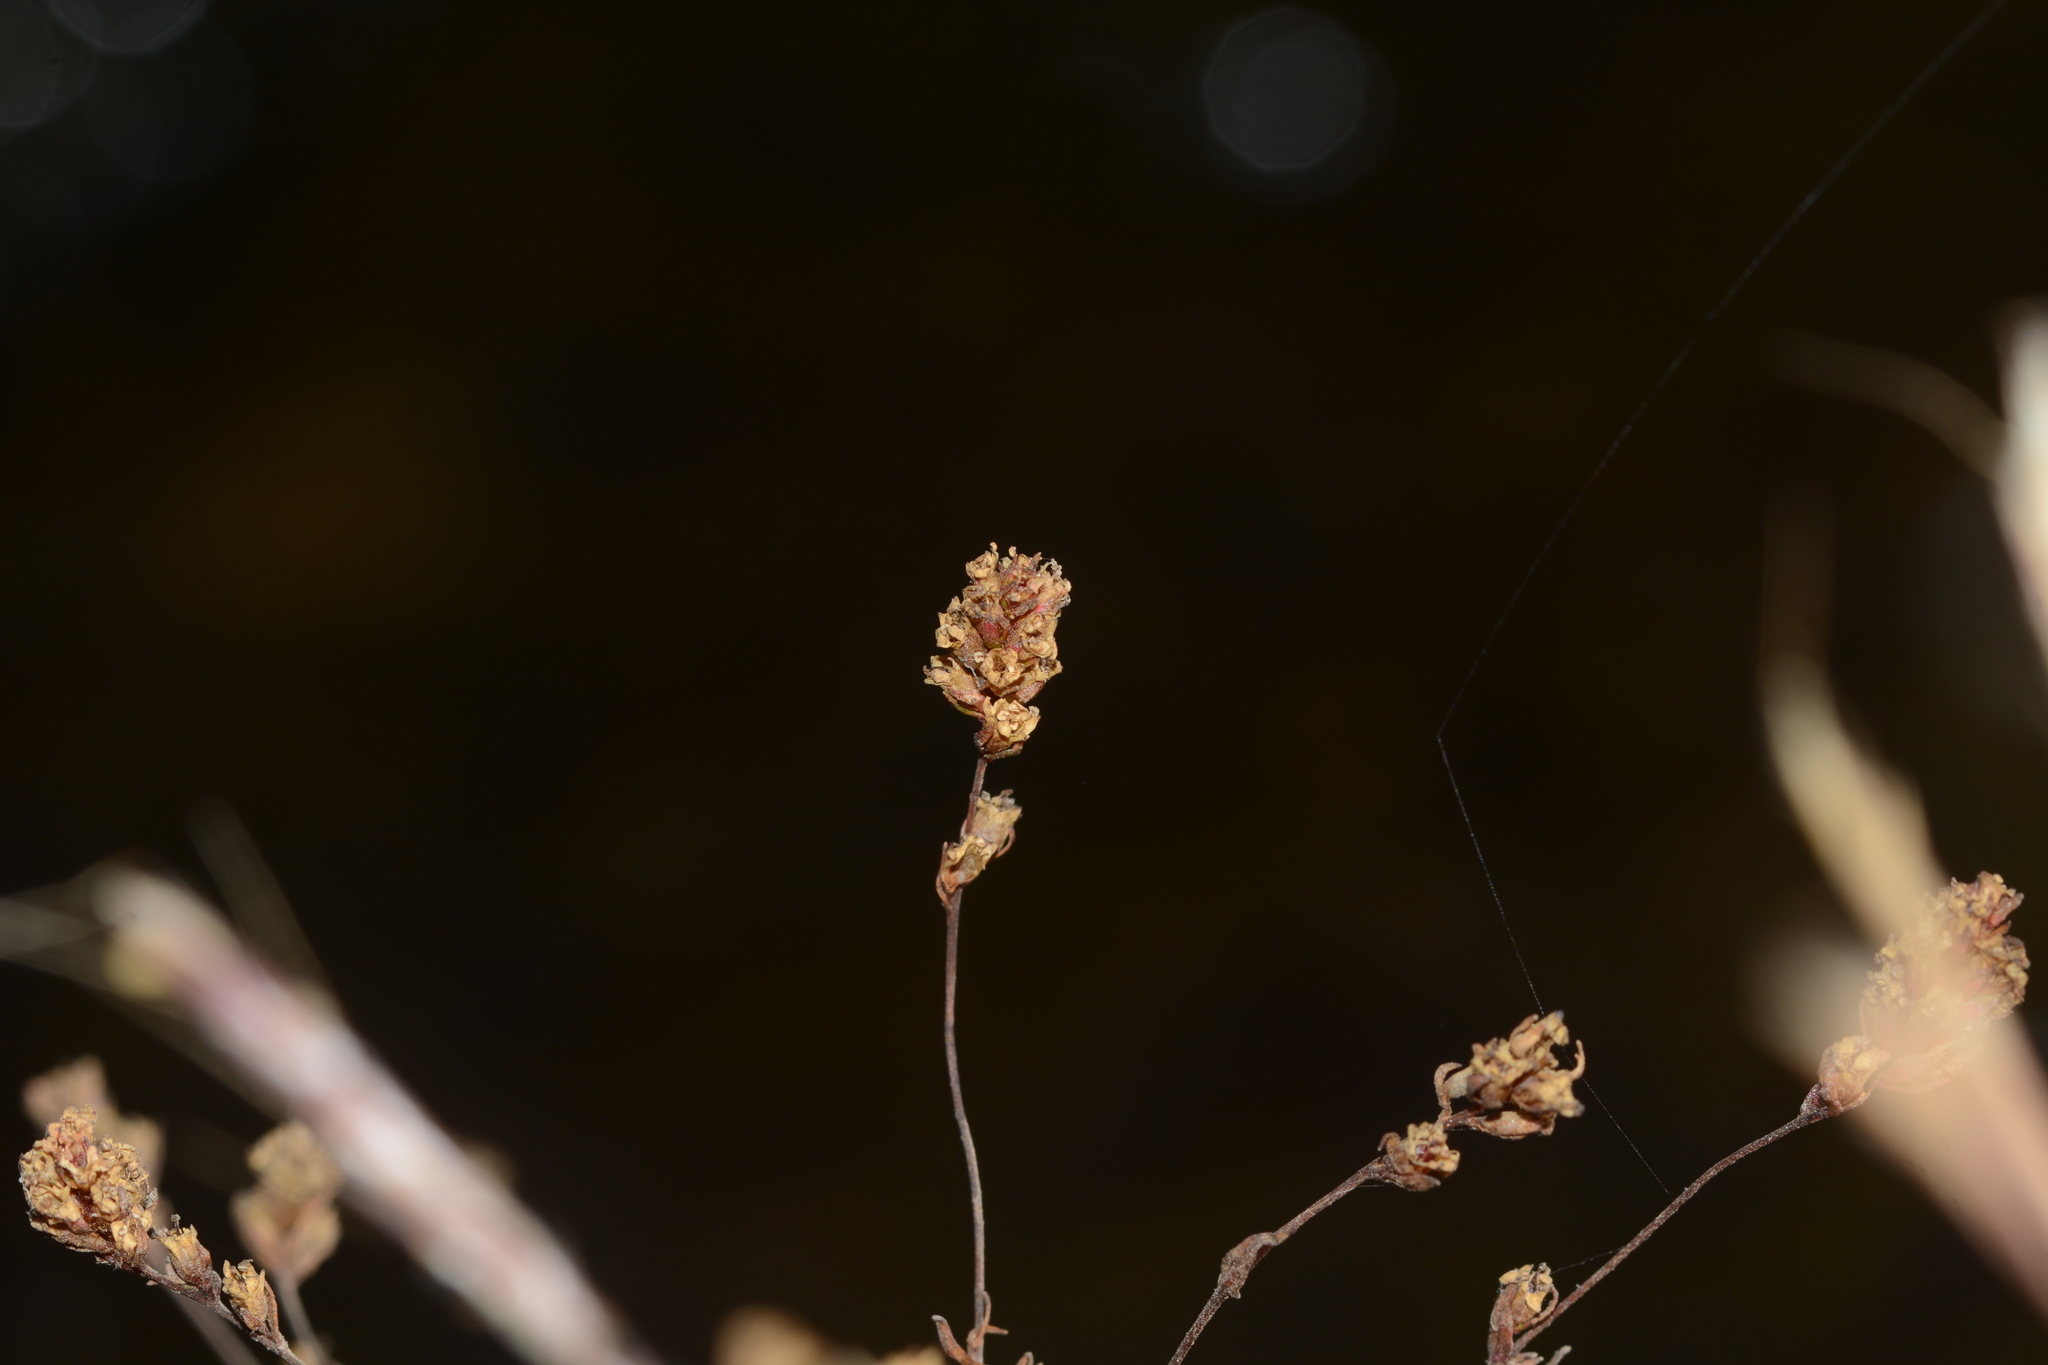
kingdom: Plantae
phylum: Tracheophyta
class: Magnoliopsida
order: Myrtales
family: Lythraceae
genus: Rotala
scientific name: Rotala floribunda
